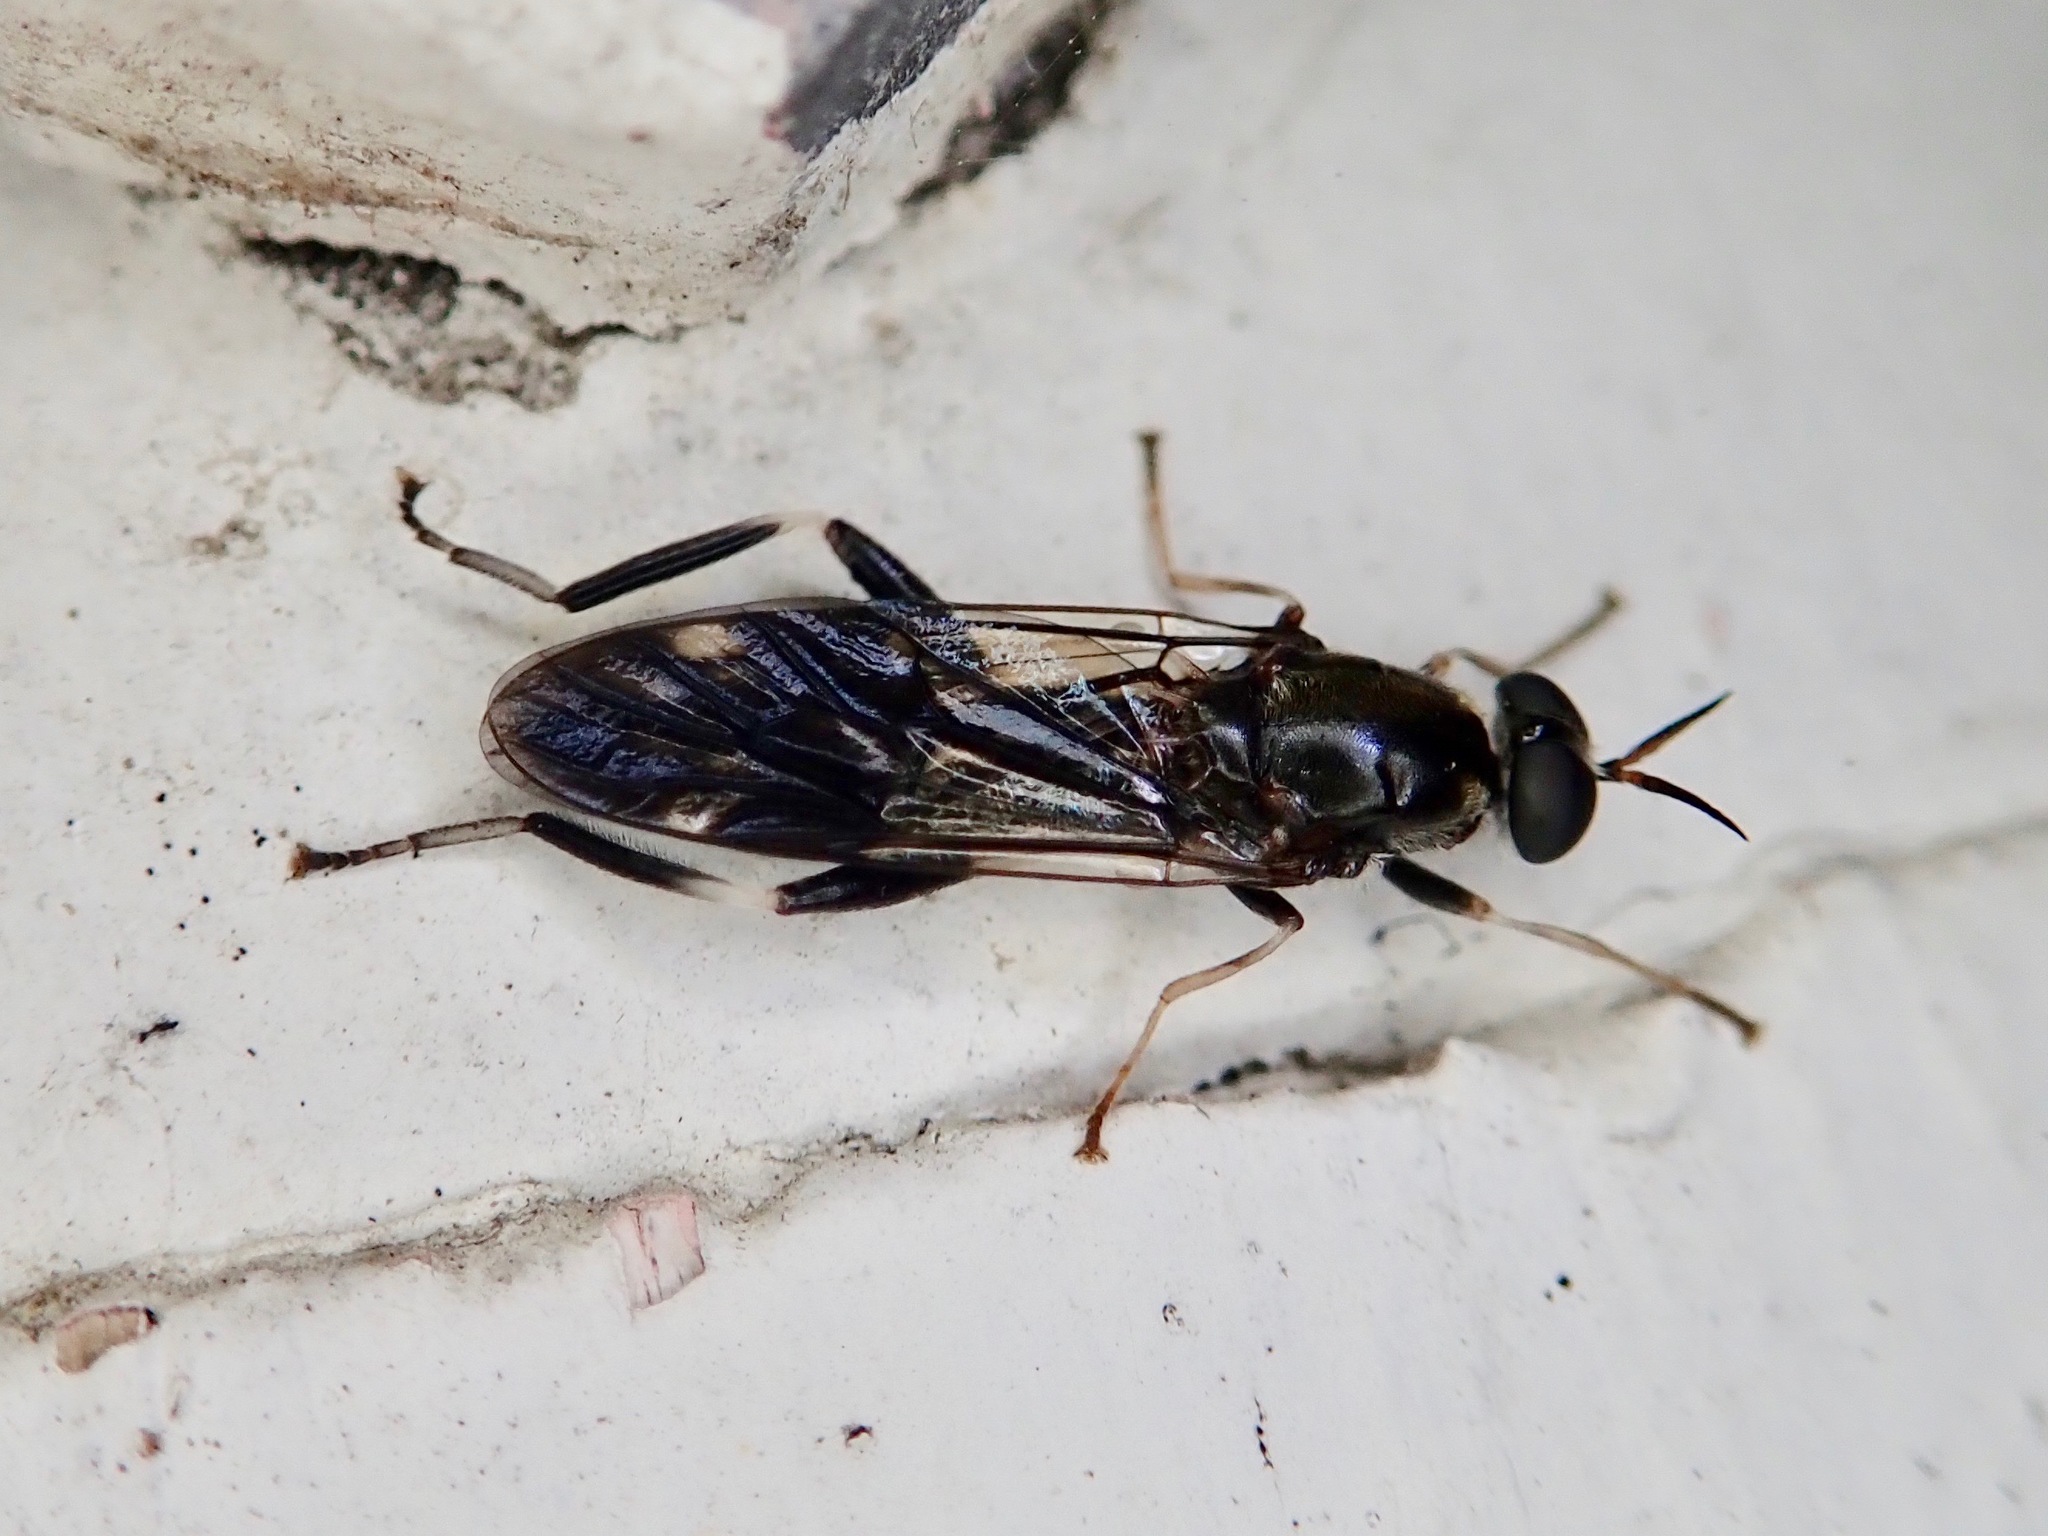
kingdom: Animalia
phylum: Arthropoda
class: Insecta
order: Diptera
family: Stratiomyidae
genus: Exaireta
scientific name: Exaireta spinigera
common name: Blue soldier fly
